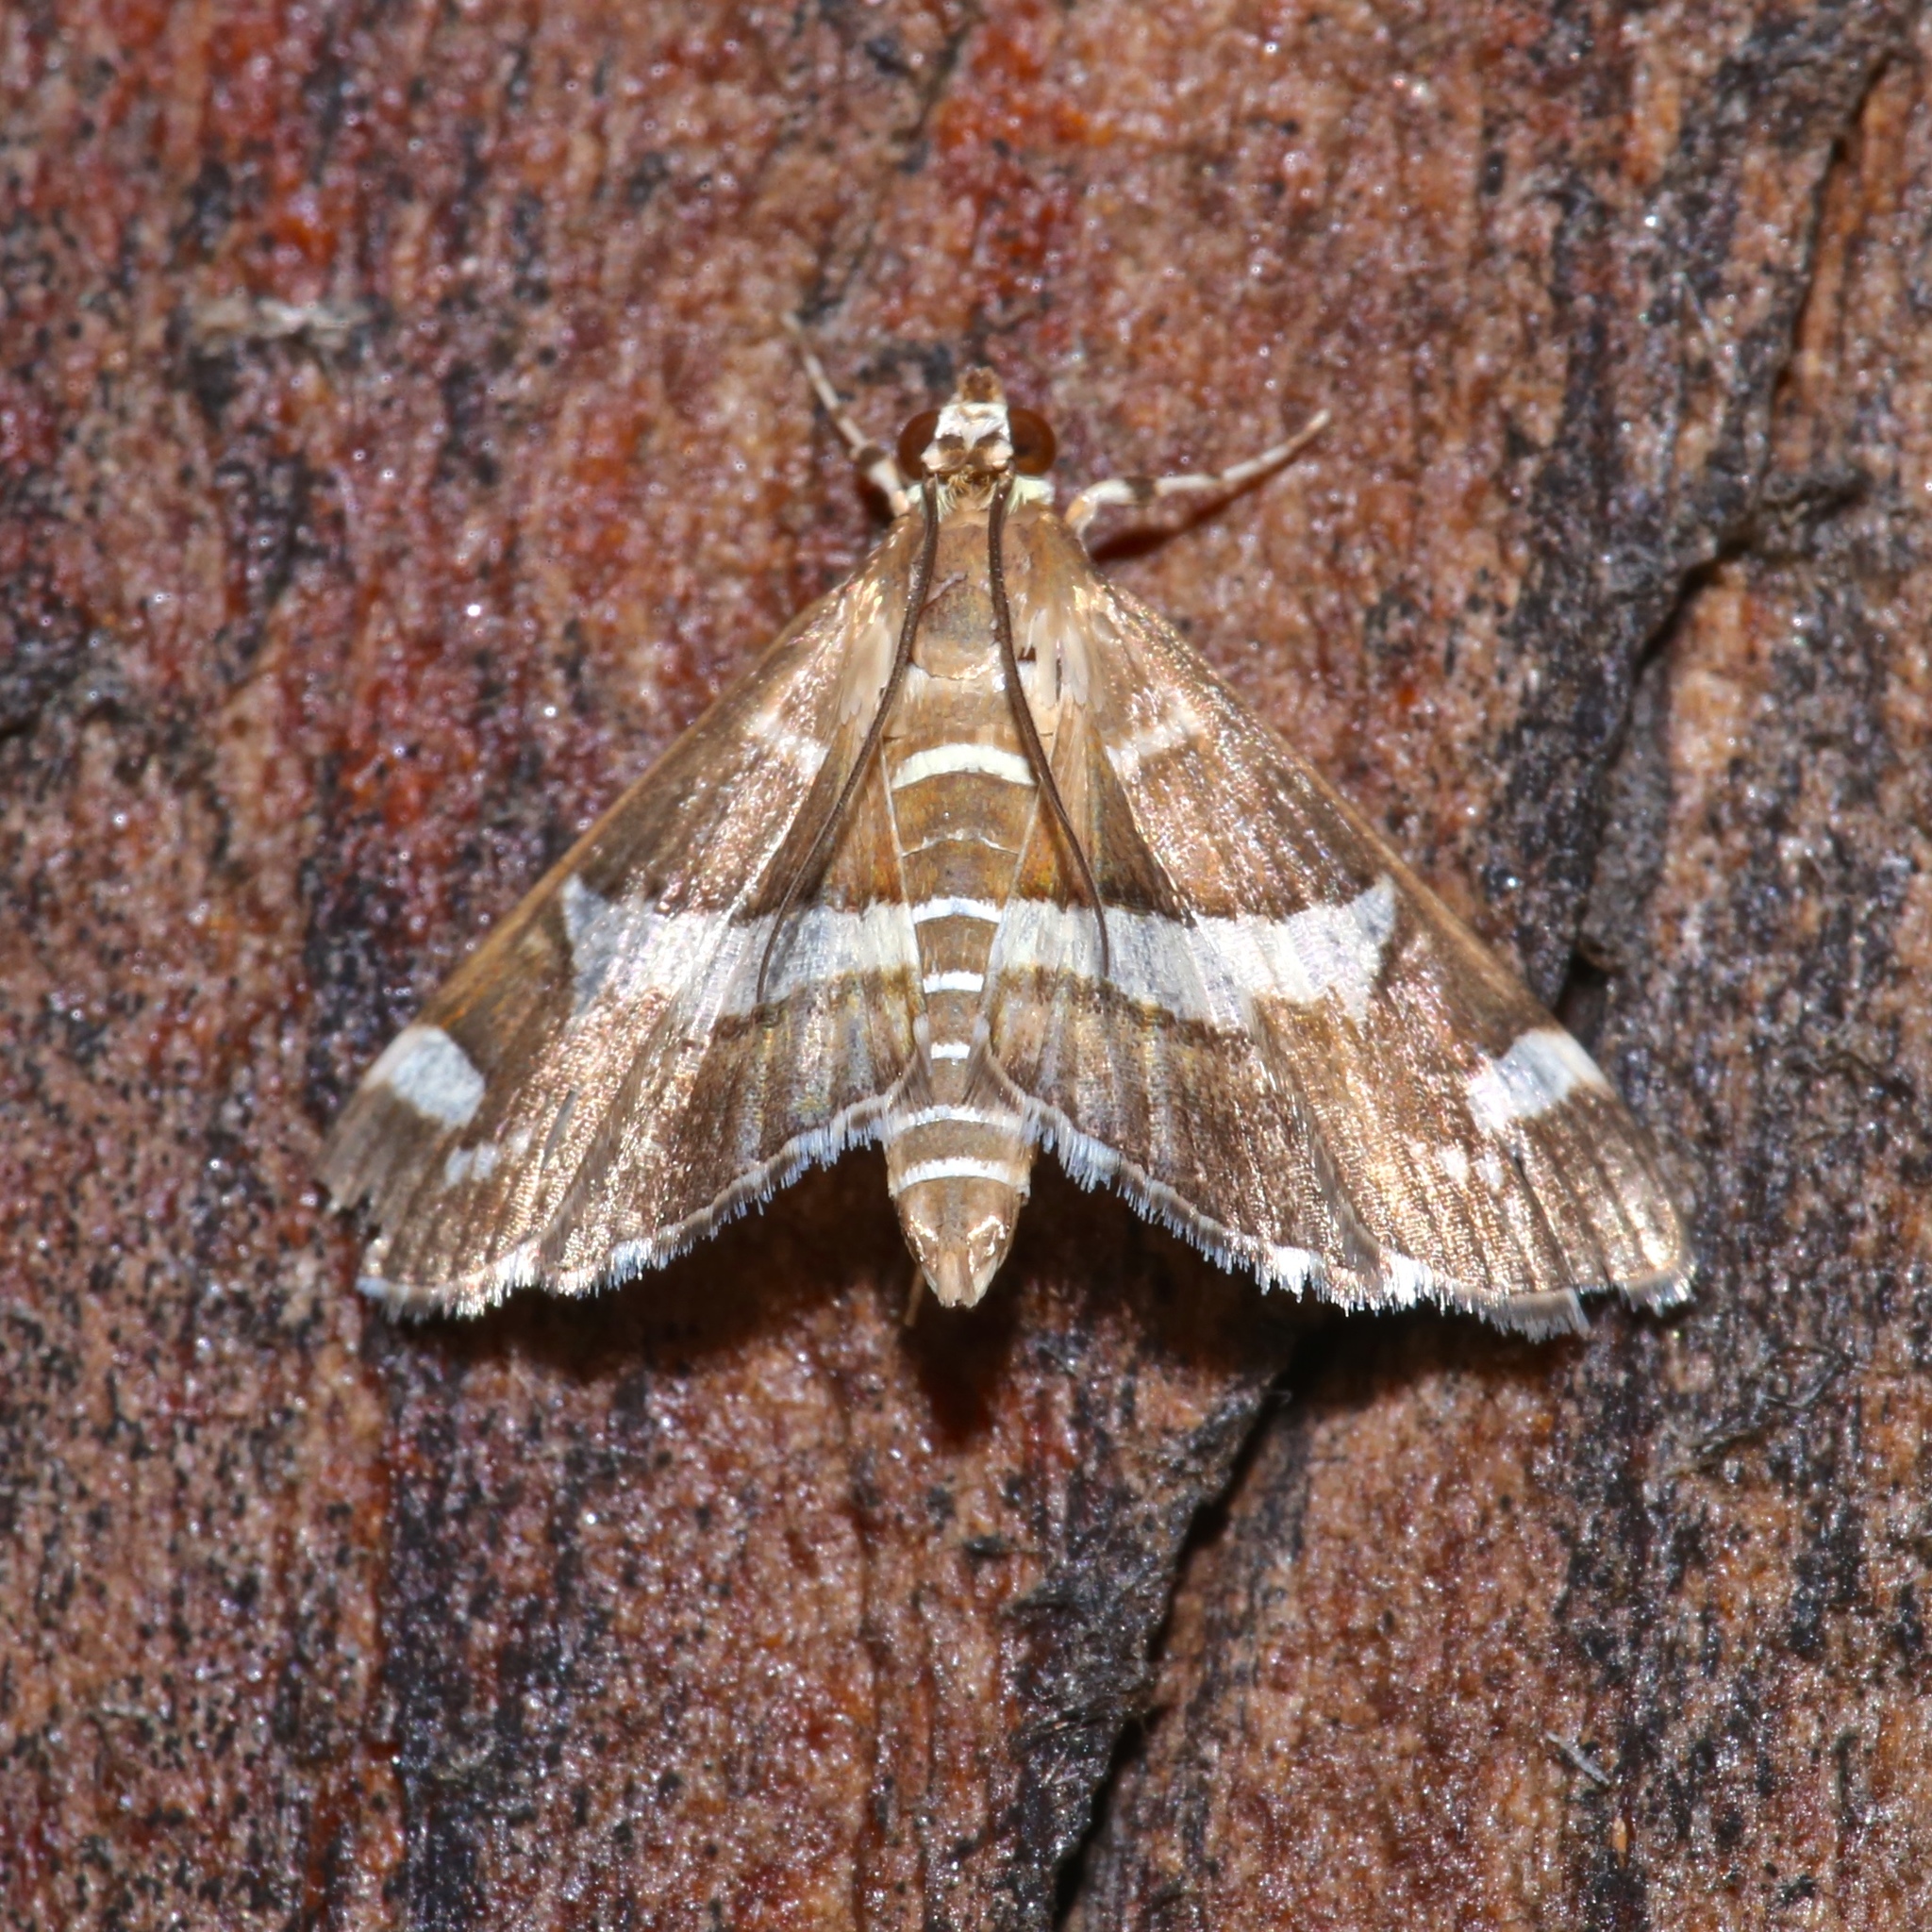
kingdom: Animalia
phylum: Arthropoda
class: Insecta
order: Lepidoptera
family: Crambidae
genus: Spoladea
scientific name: Spoladea recurvalis
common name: Beet webworm moth
